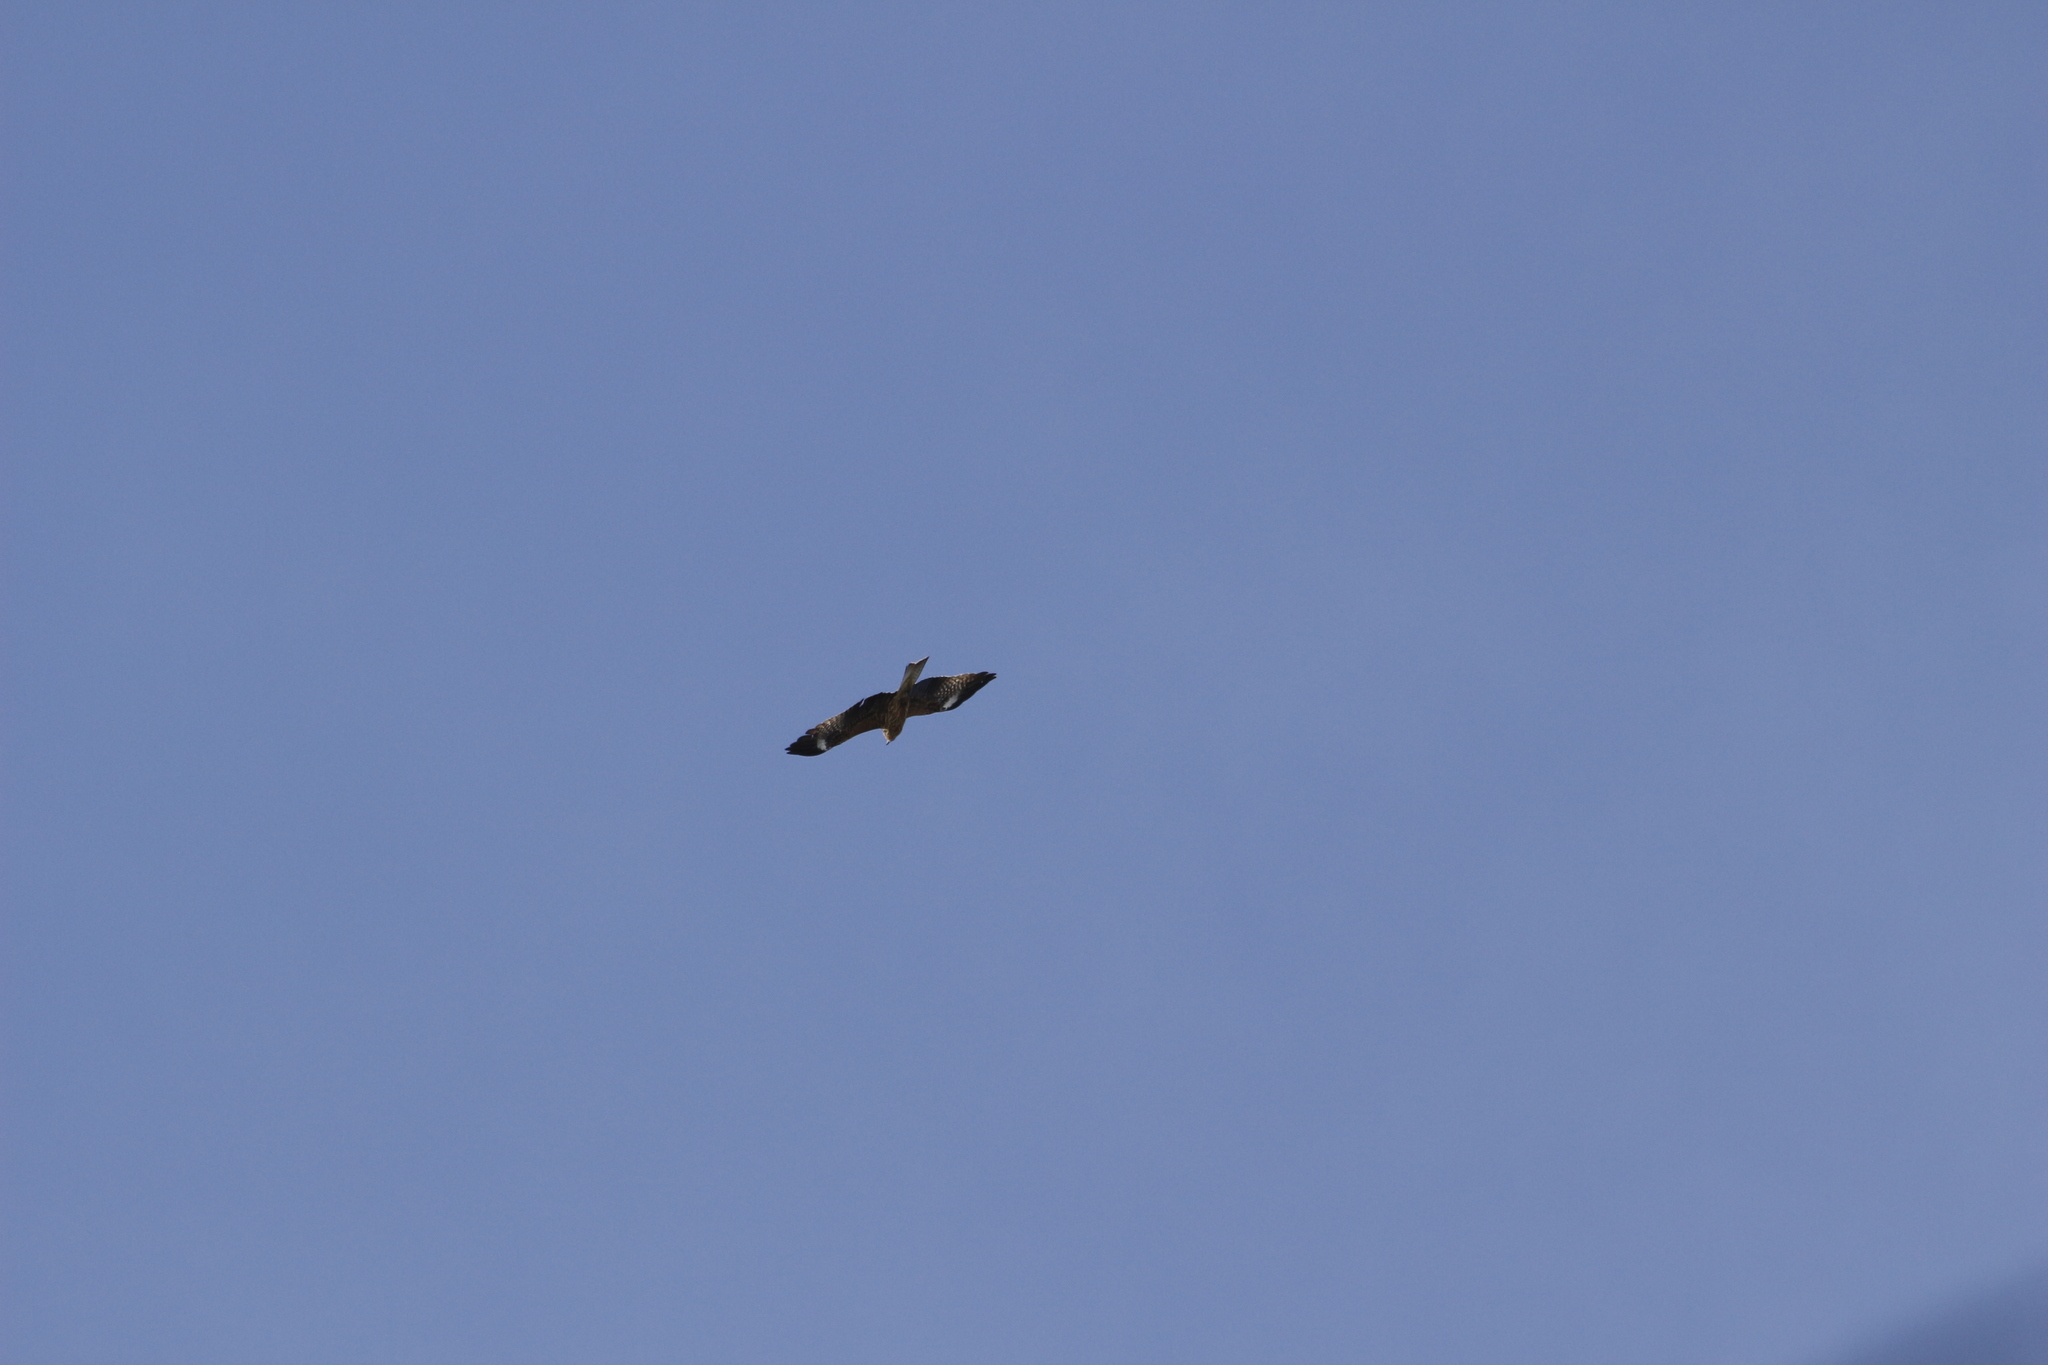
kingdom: Animalia
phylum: Chordata
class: Aves
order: Accipitriformes
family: Accipitridae
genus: Milvus
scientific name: Milvus migrans
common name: Black kite
